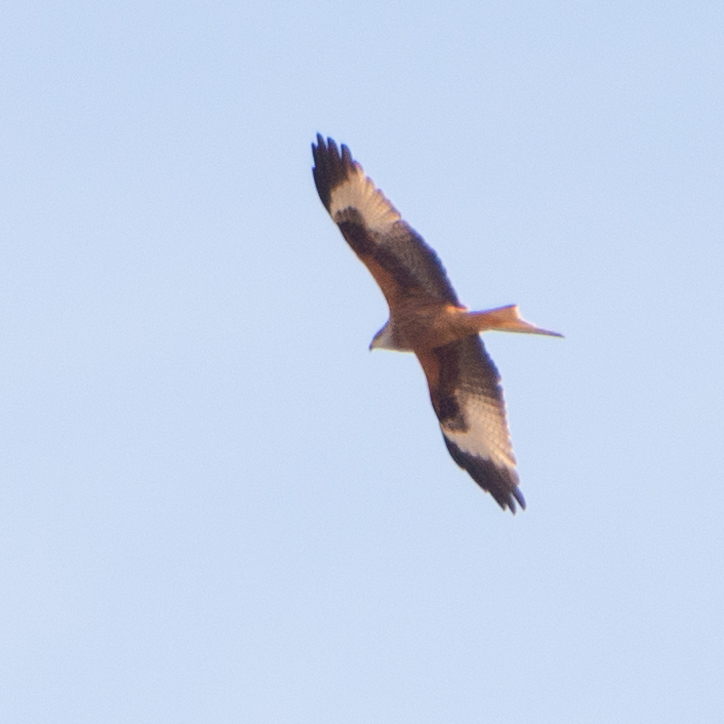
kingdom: Animalia
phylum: Chordata
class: Aves
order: Accipitriformes
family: Accipitridae
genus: Milvus
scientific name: Milvus milvus
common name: Red kite
